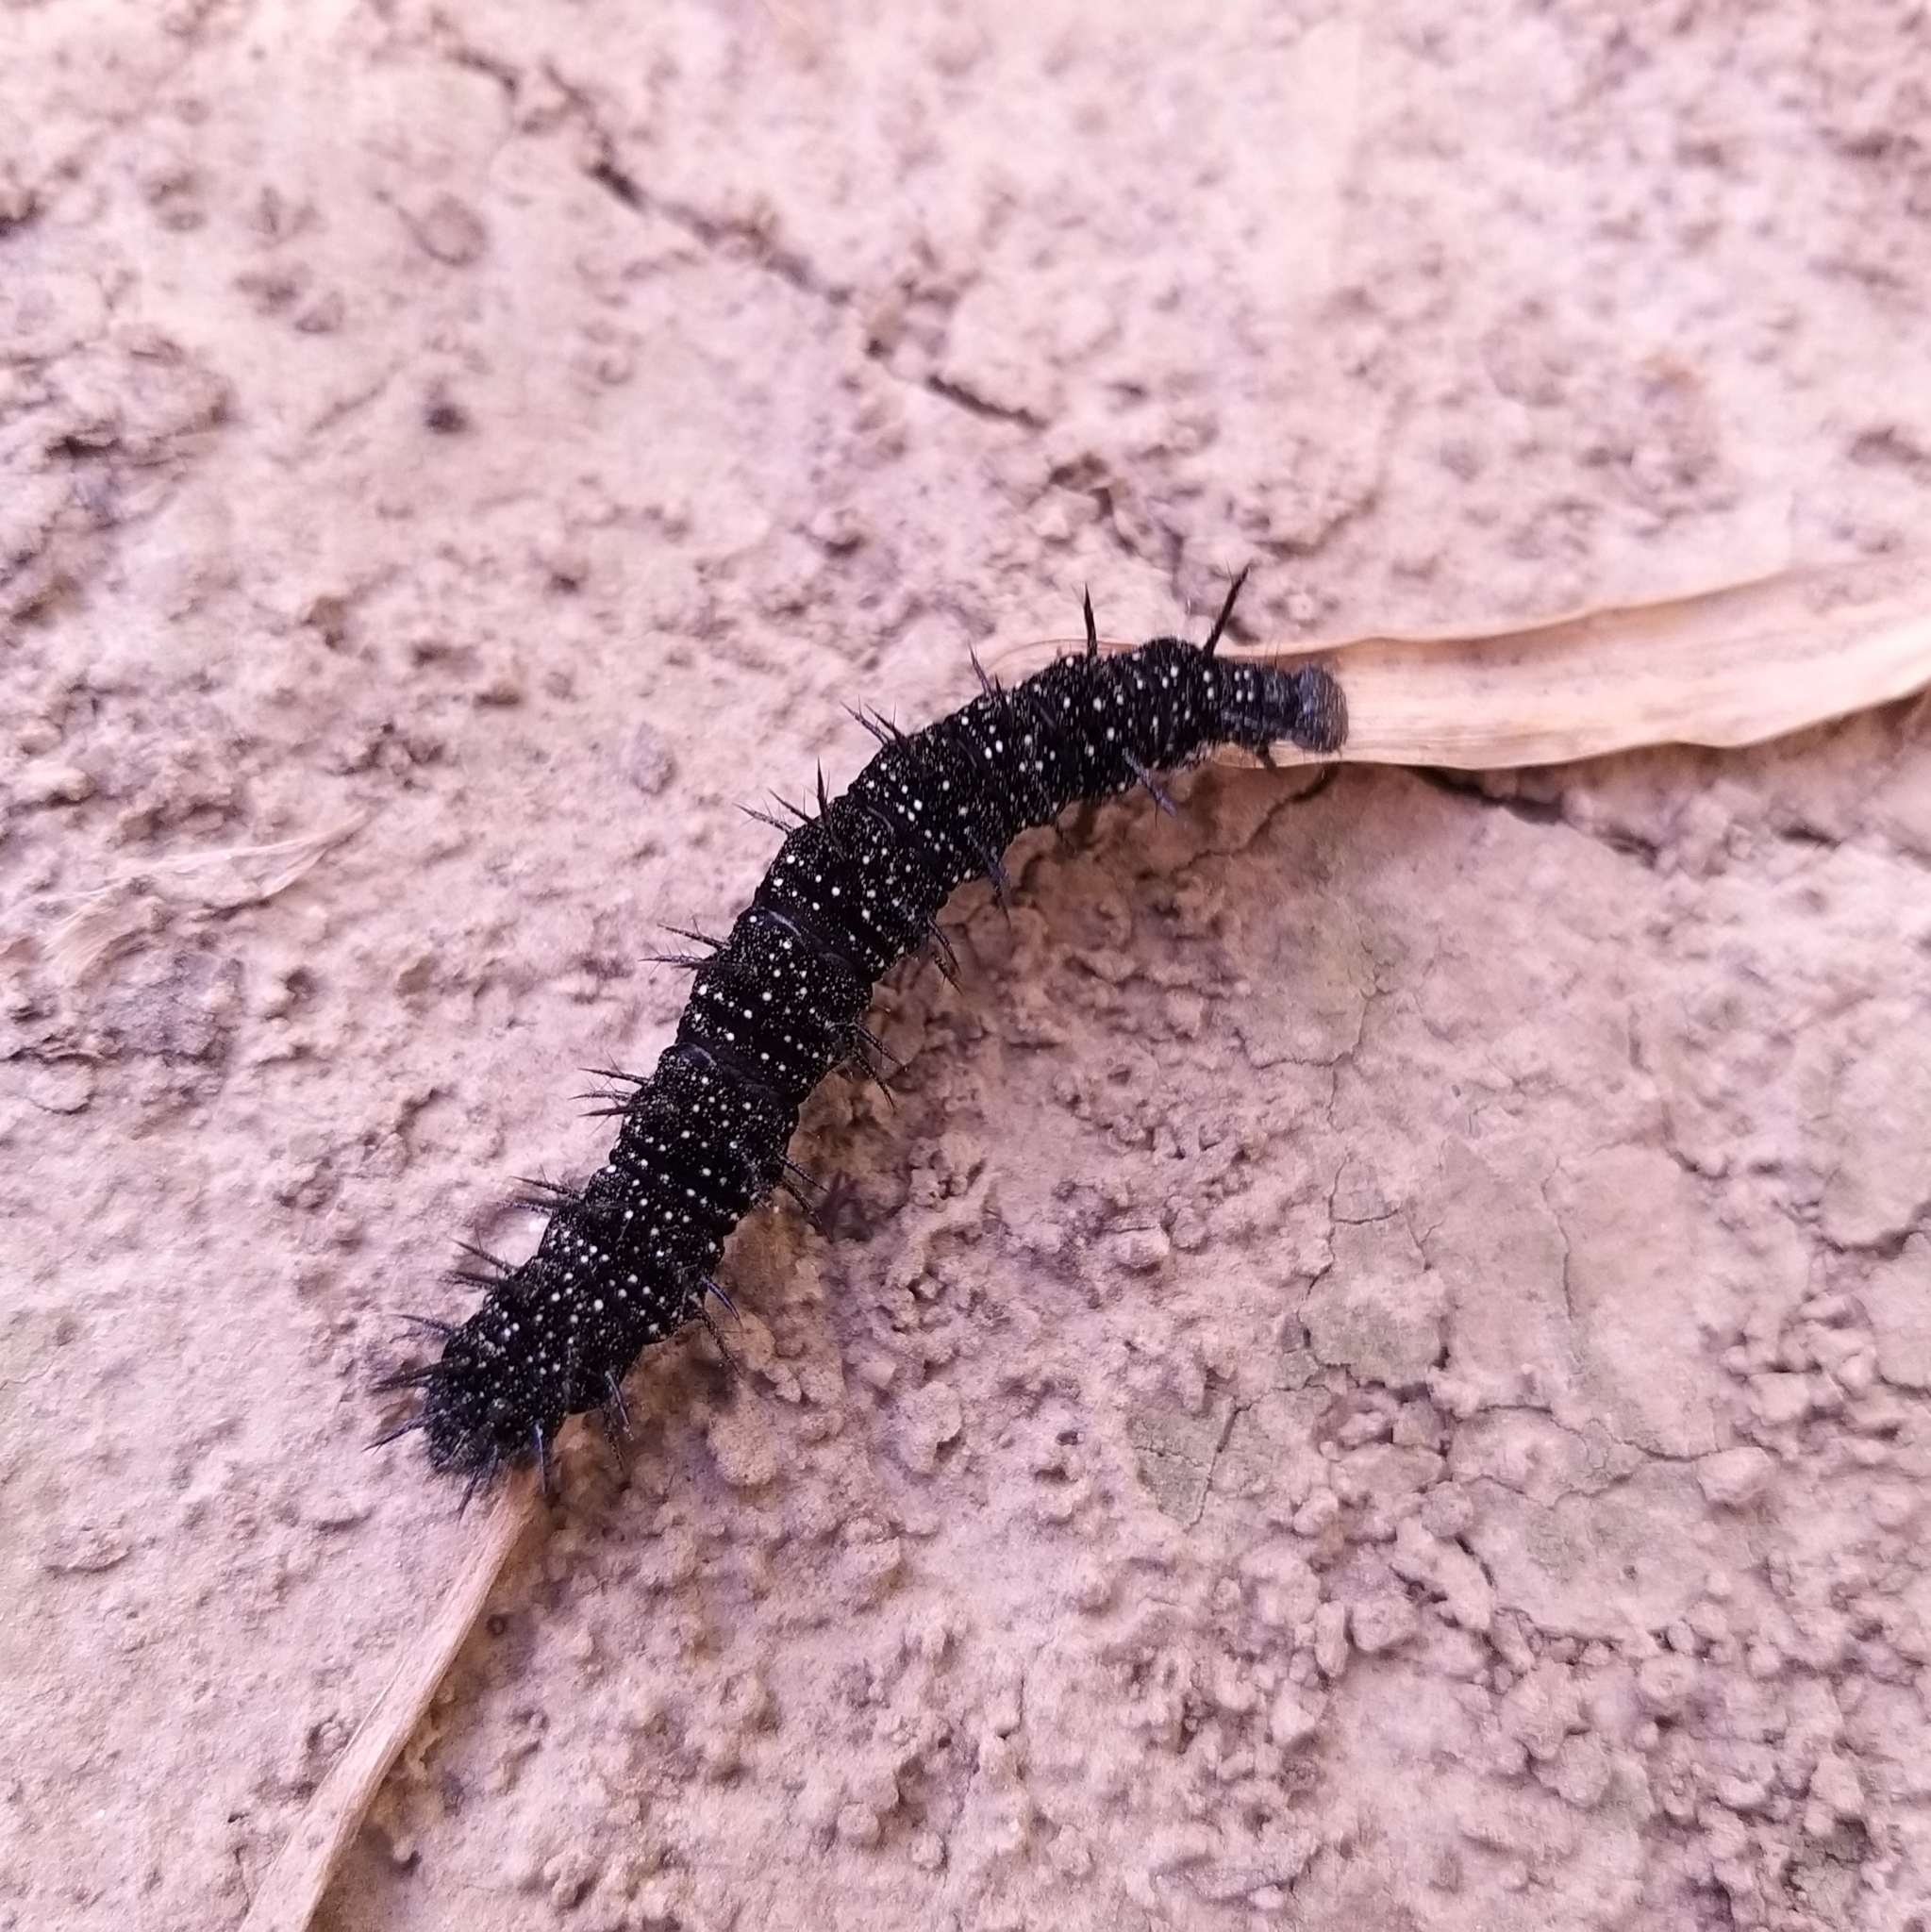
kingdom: Animalia
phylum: Arthropoda
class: Insecta
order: Lepidoptera
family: Nymphalidae
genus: Aglais
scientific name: Aglais io
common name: Peacock
